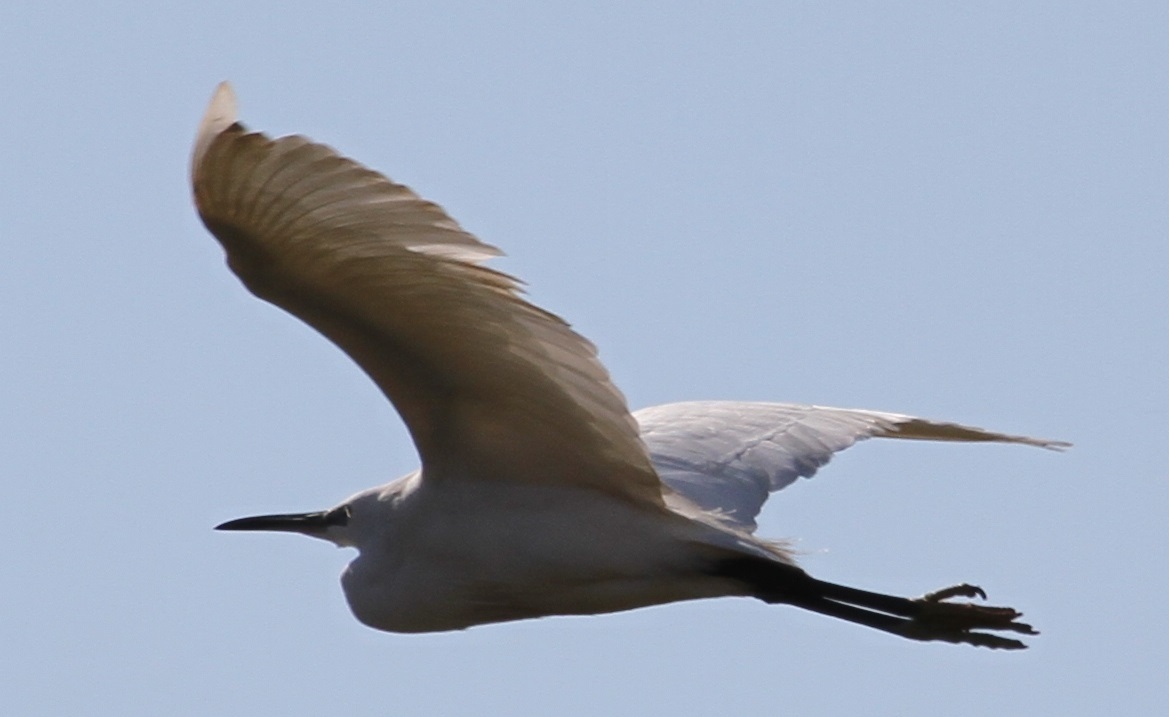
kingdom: Animalia
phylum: Chordata
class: Aves
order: Pelecaniformes
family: Ardeidae
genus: Egretta
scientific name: Egretta garzetta
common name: Little egret
